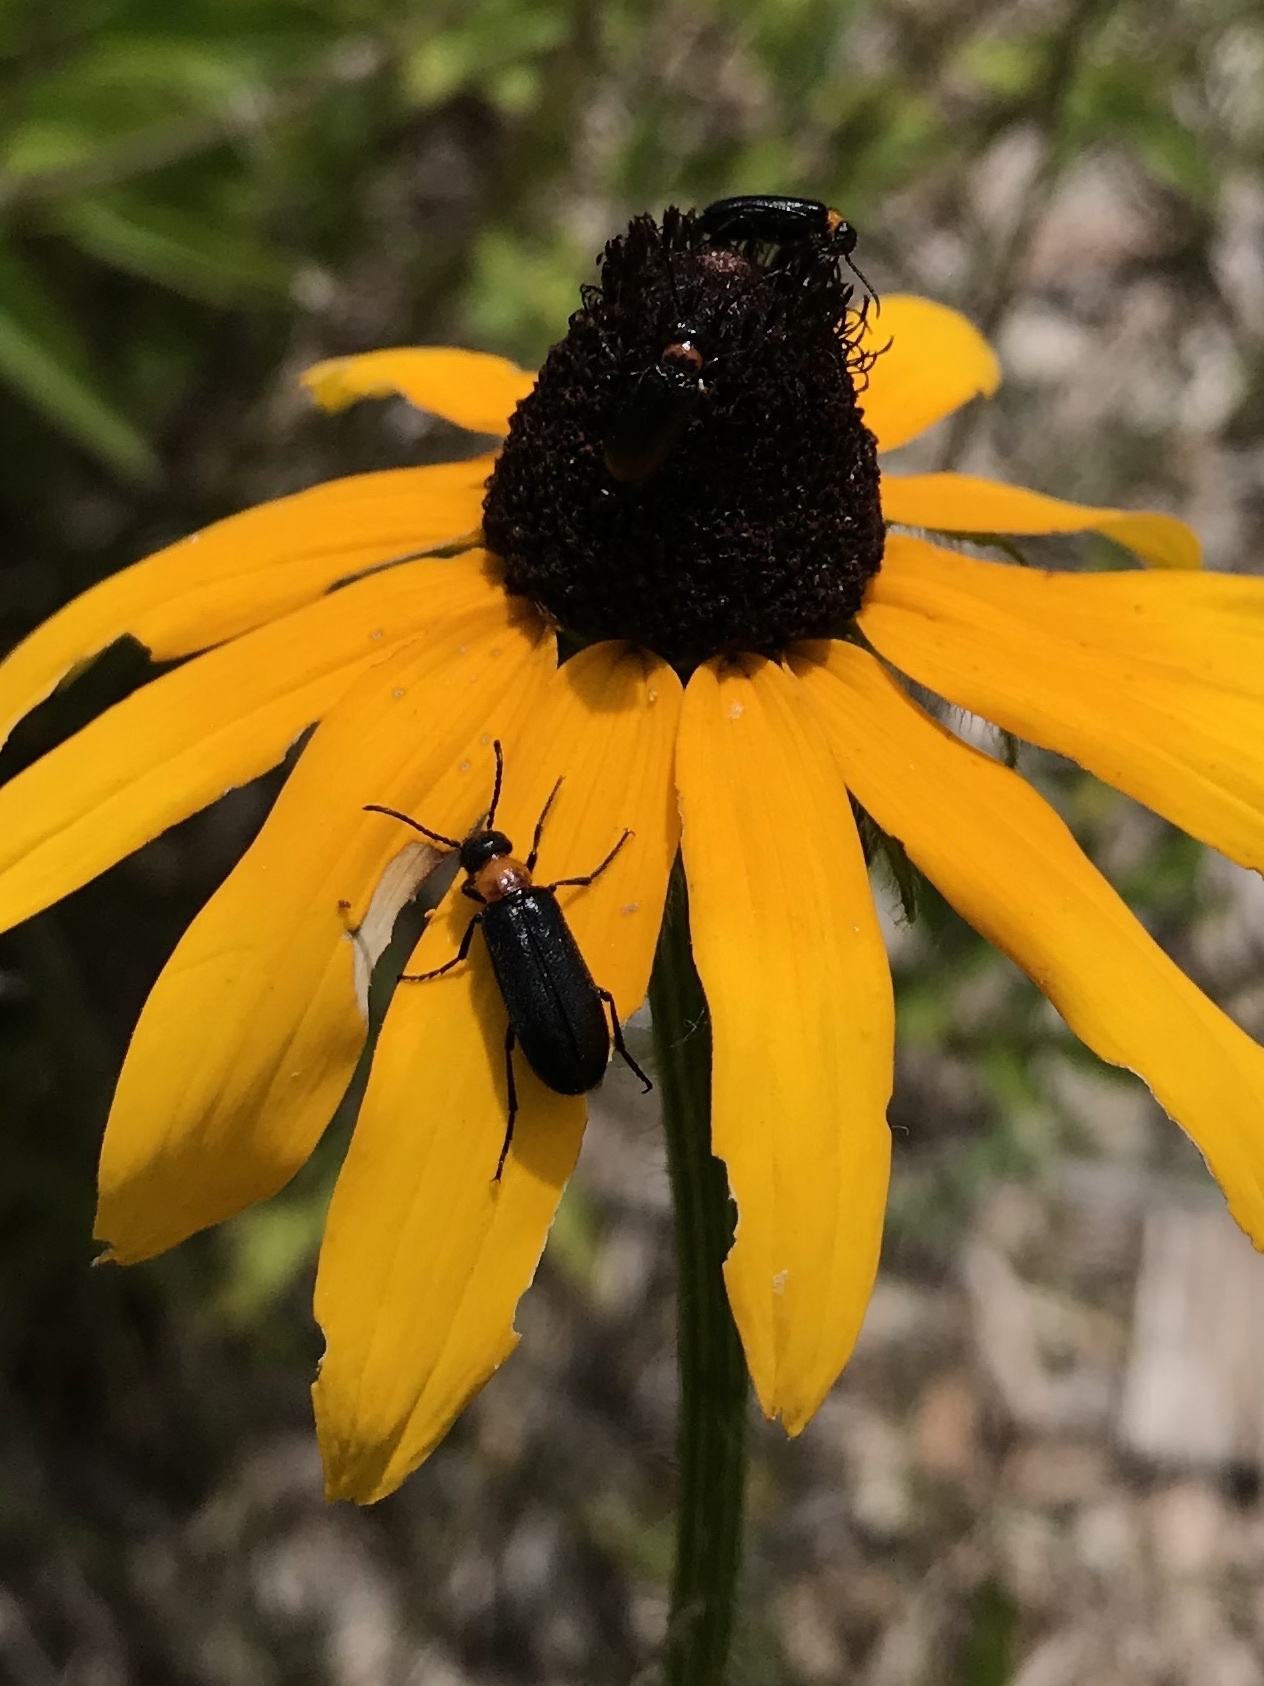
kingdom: Animalia
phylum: Arthropoda
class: Insecta
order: Coleoptera
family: Meloidae
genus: Nemognatha
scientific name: Nemognatha nemorensis
